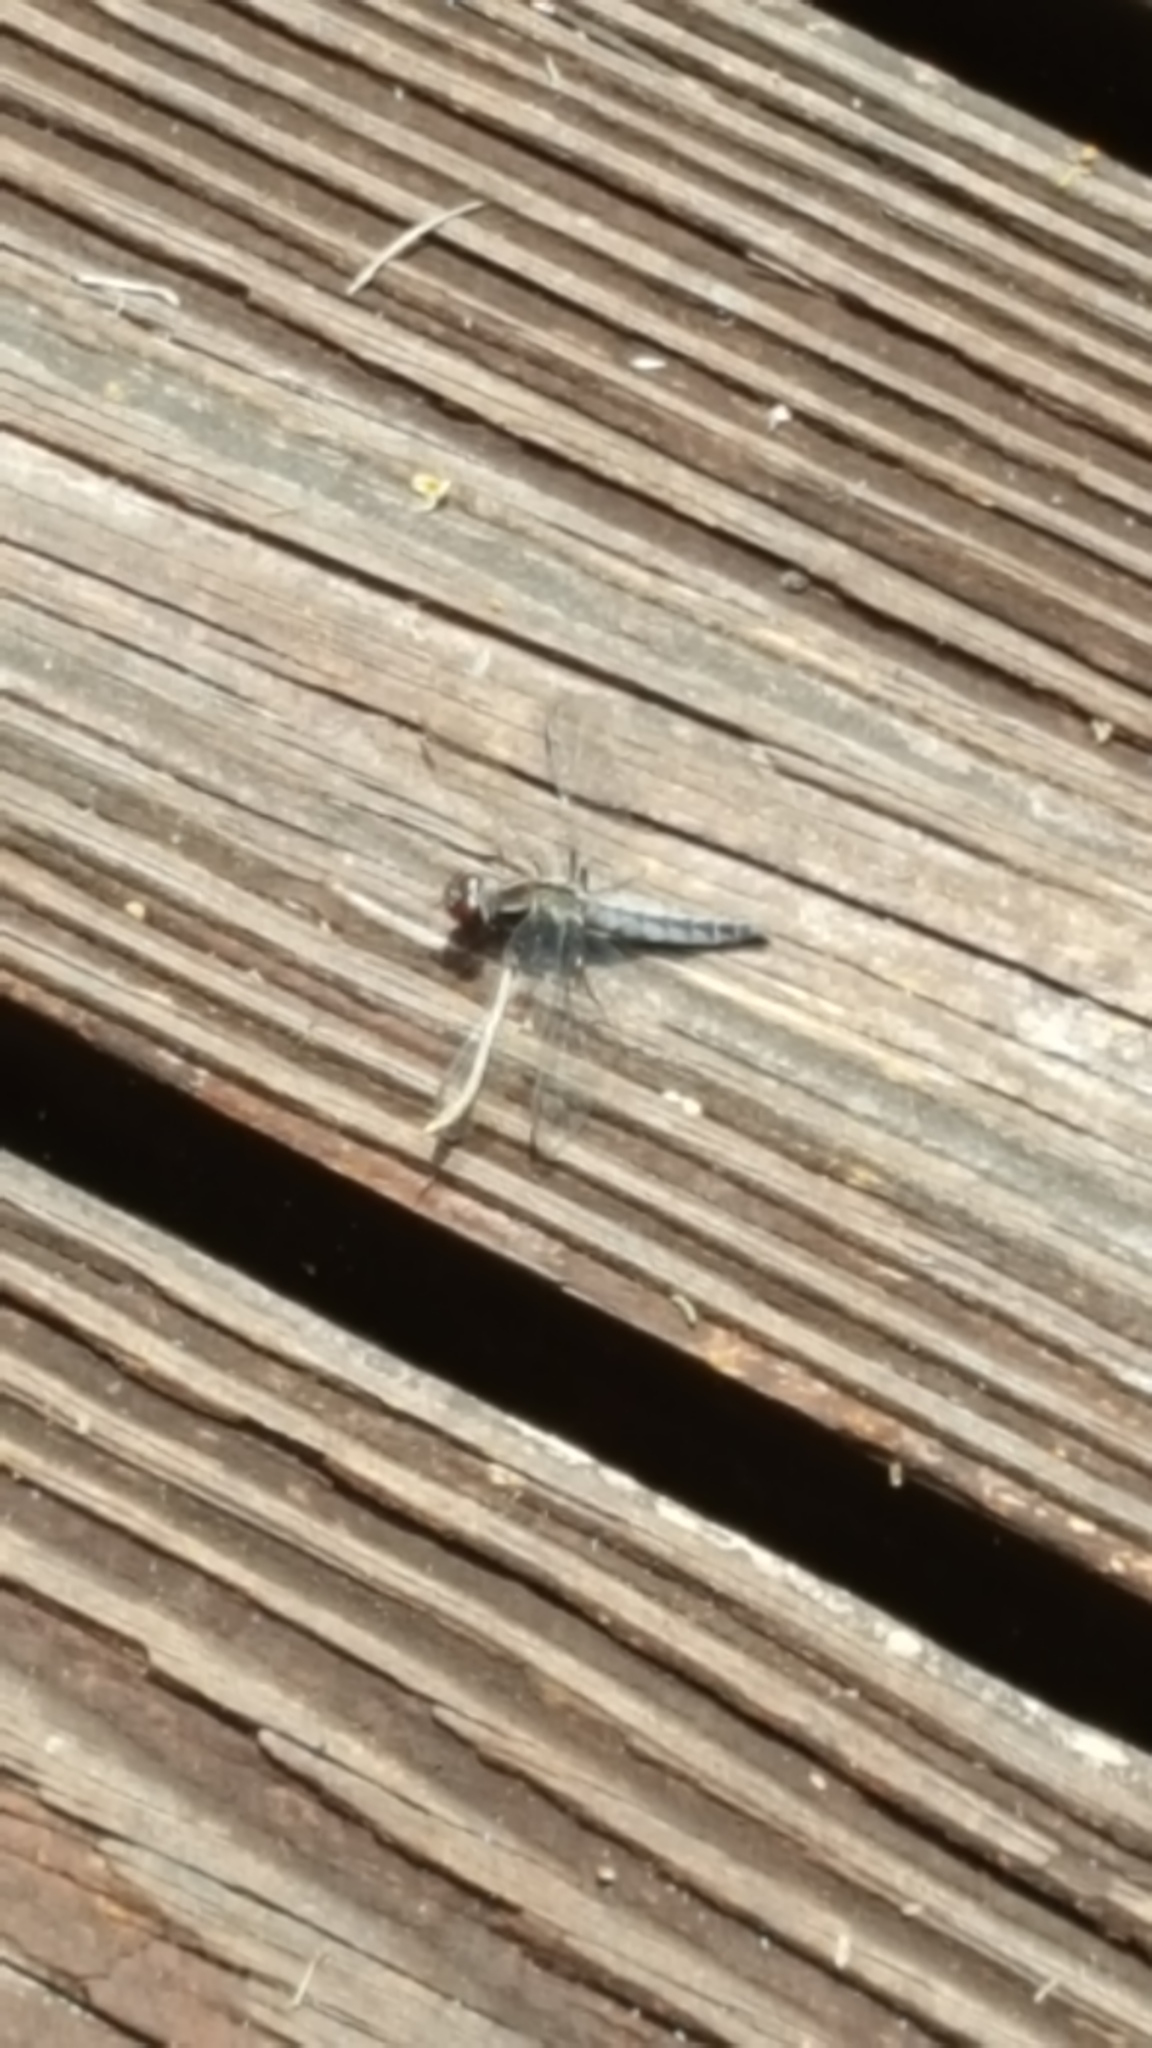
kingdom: Animalia
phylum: Arthropoda
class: Insecta
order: Odonata
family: Libellulidae
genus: Ladona
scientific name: Ladona deplanata
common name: Blue corporal
